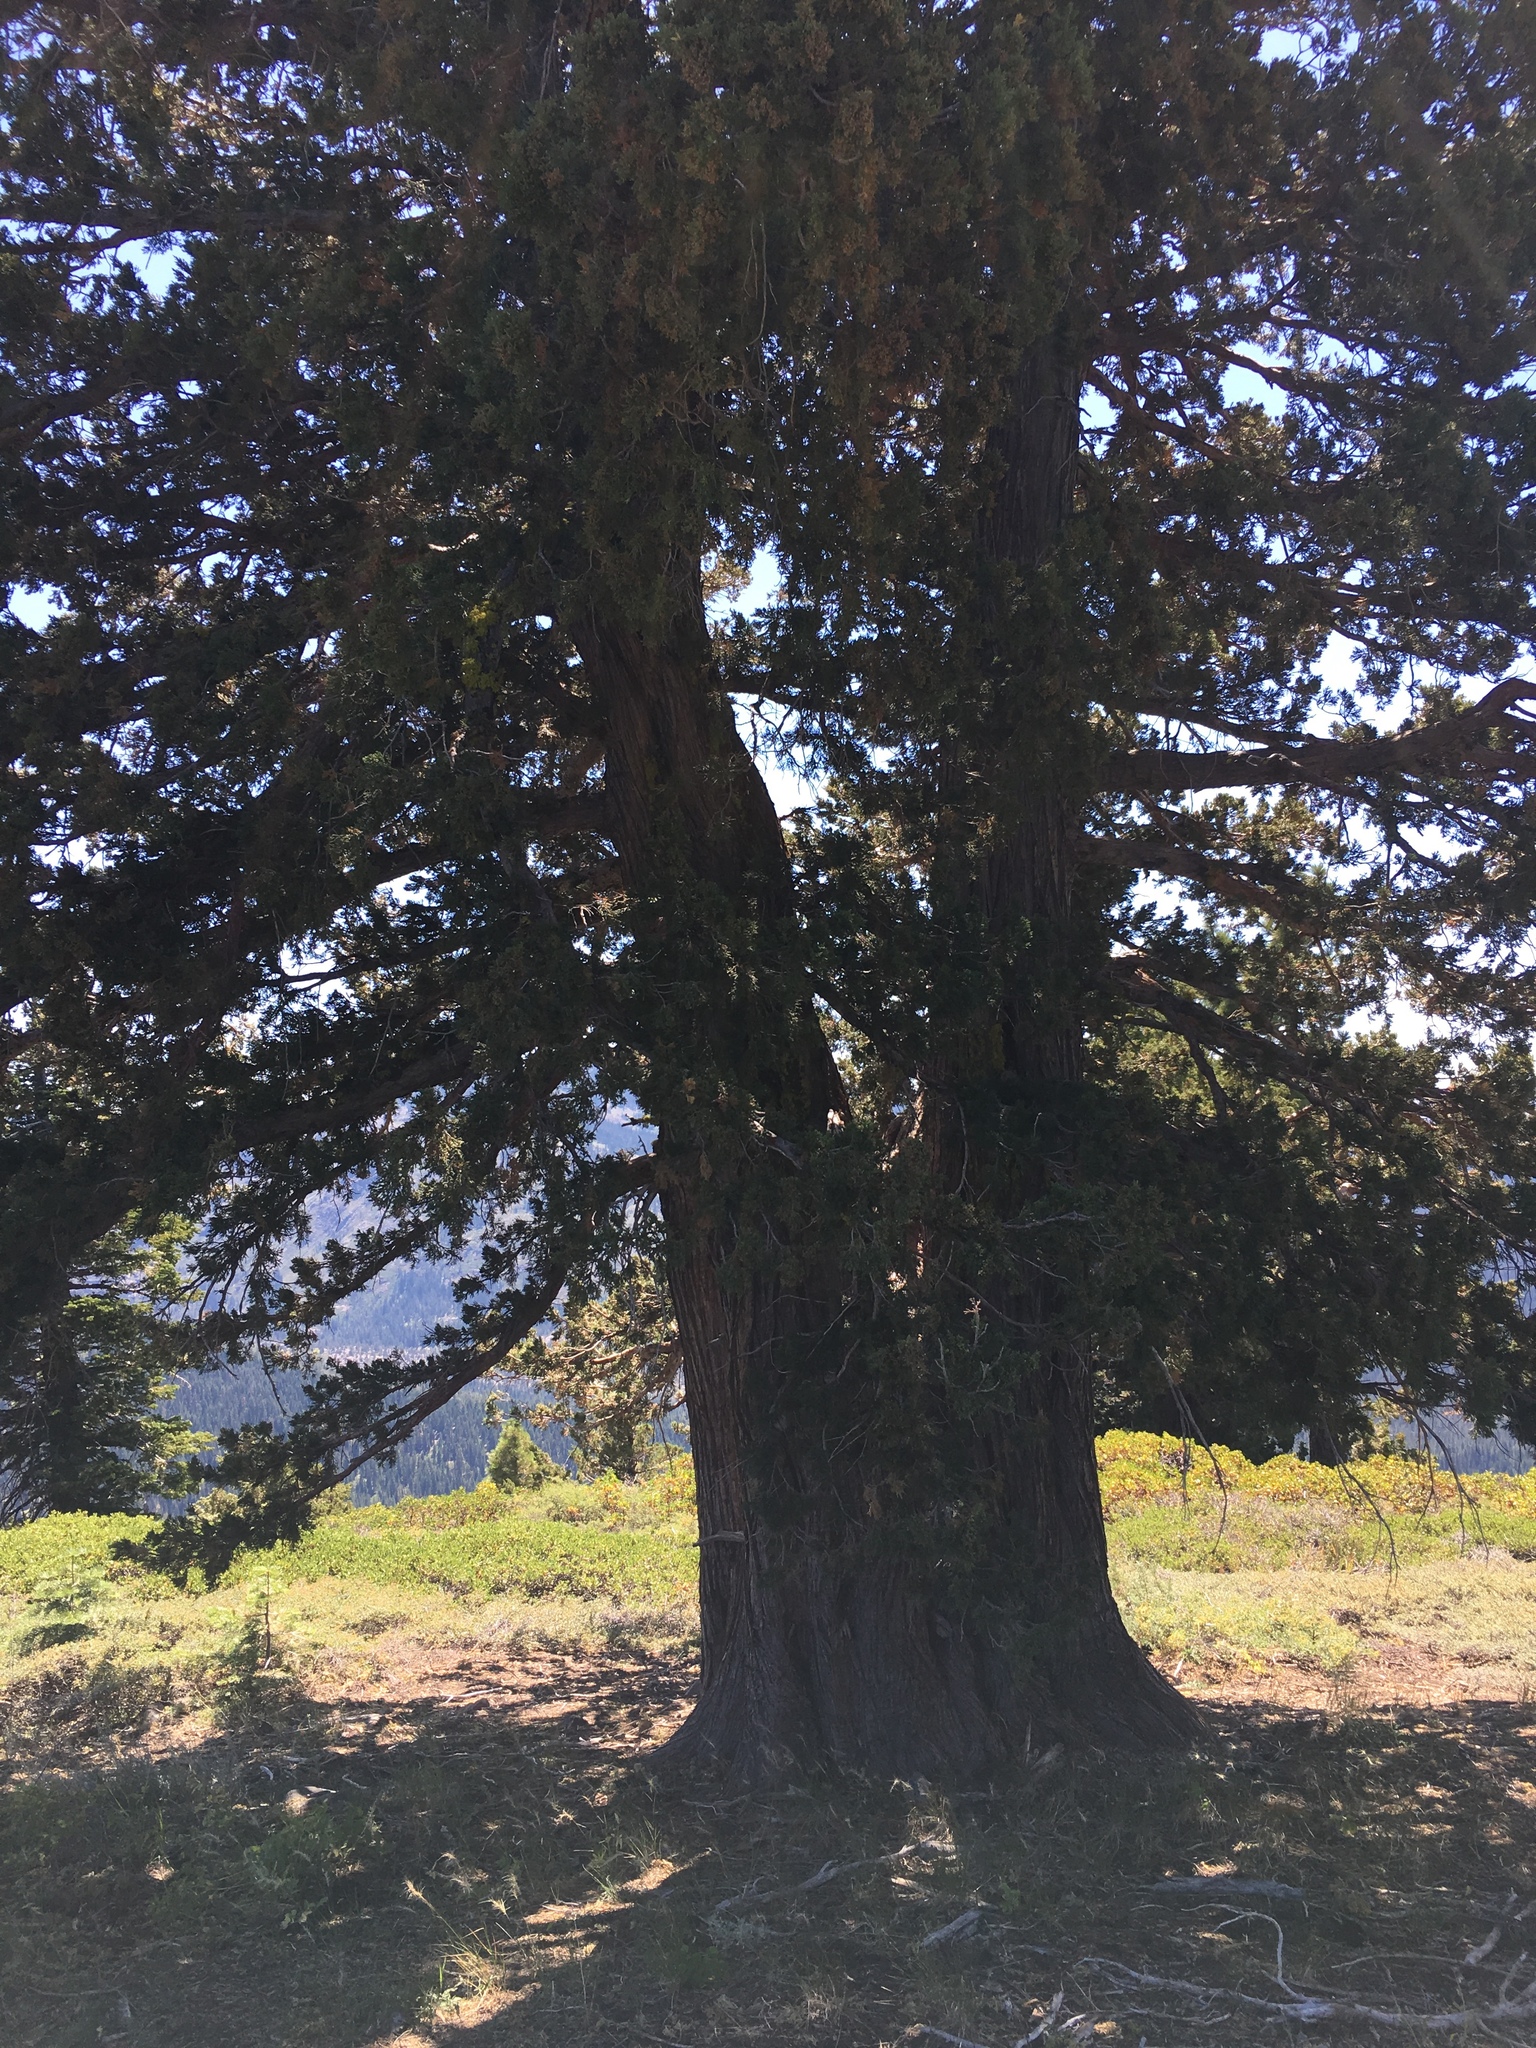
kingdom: Plantae
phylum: Tracheophyta
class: Pinopsida
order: Pinales
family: Cupressaceae
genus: Juniperus
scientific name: Juniperus occidentalis
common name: Western juniper
